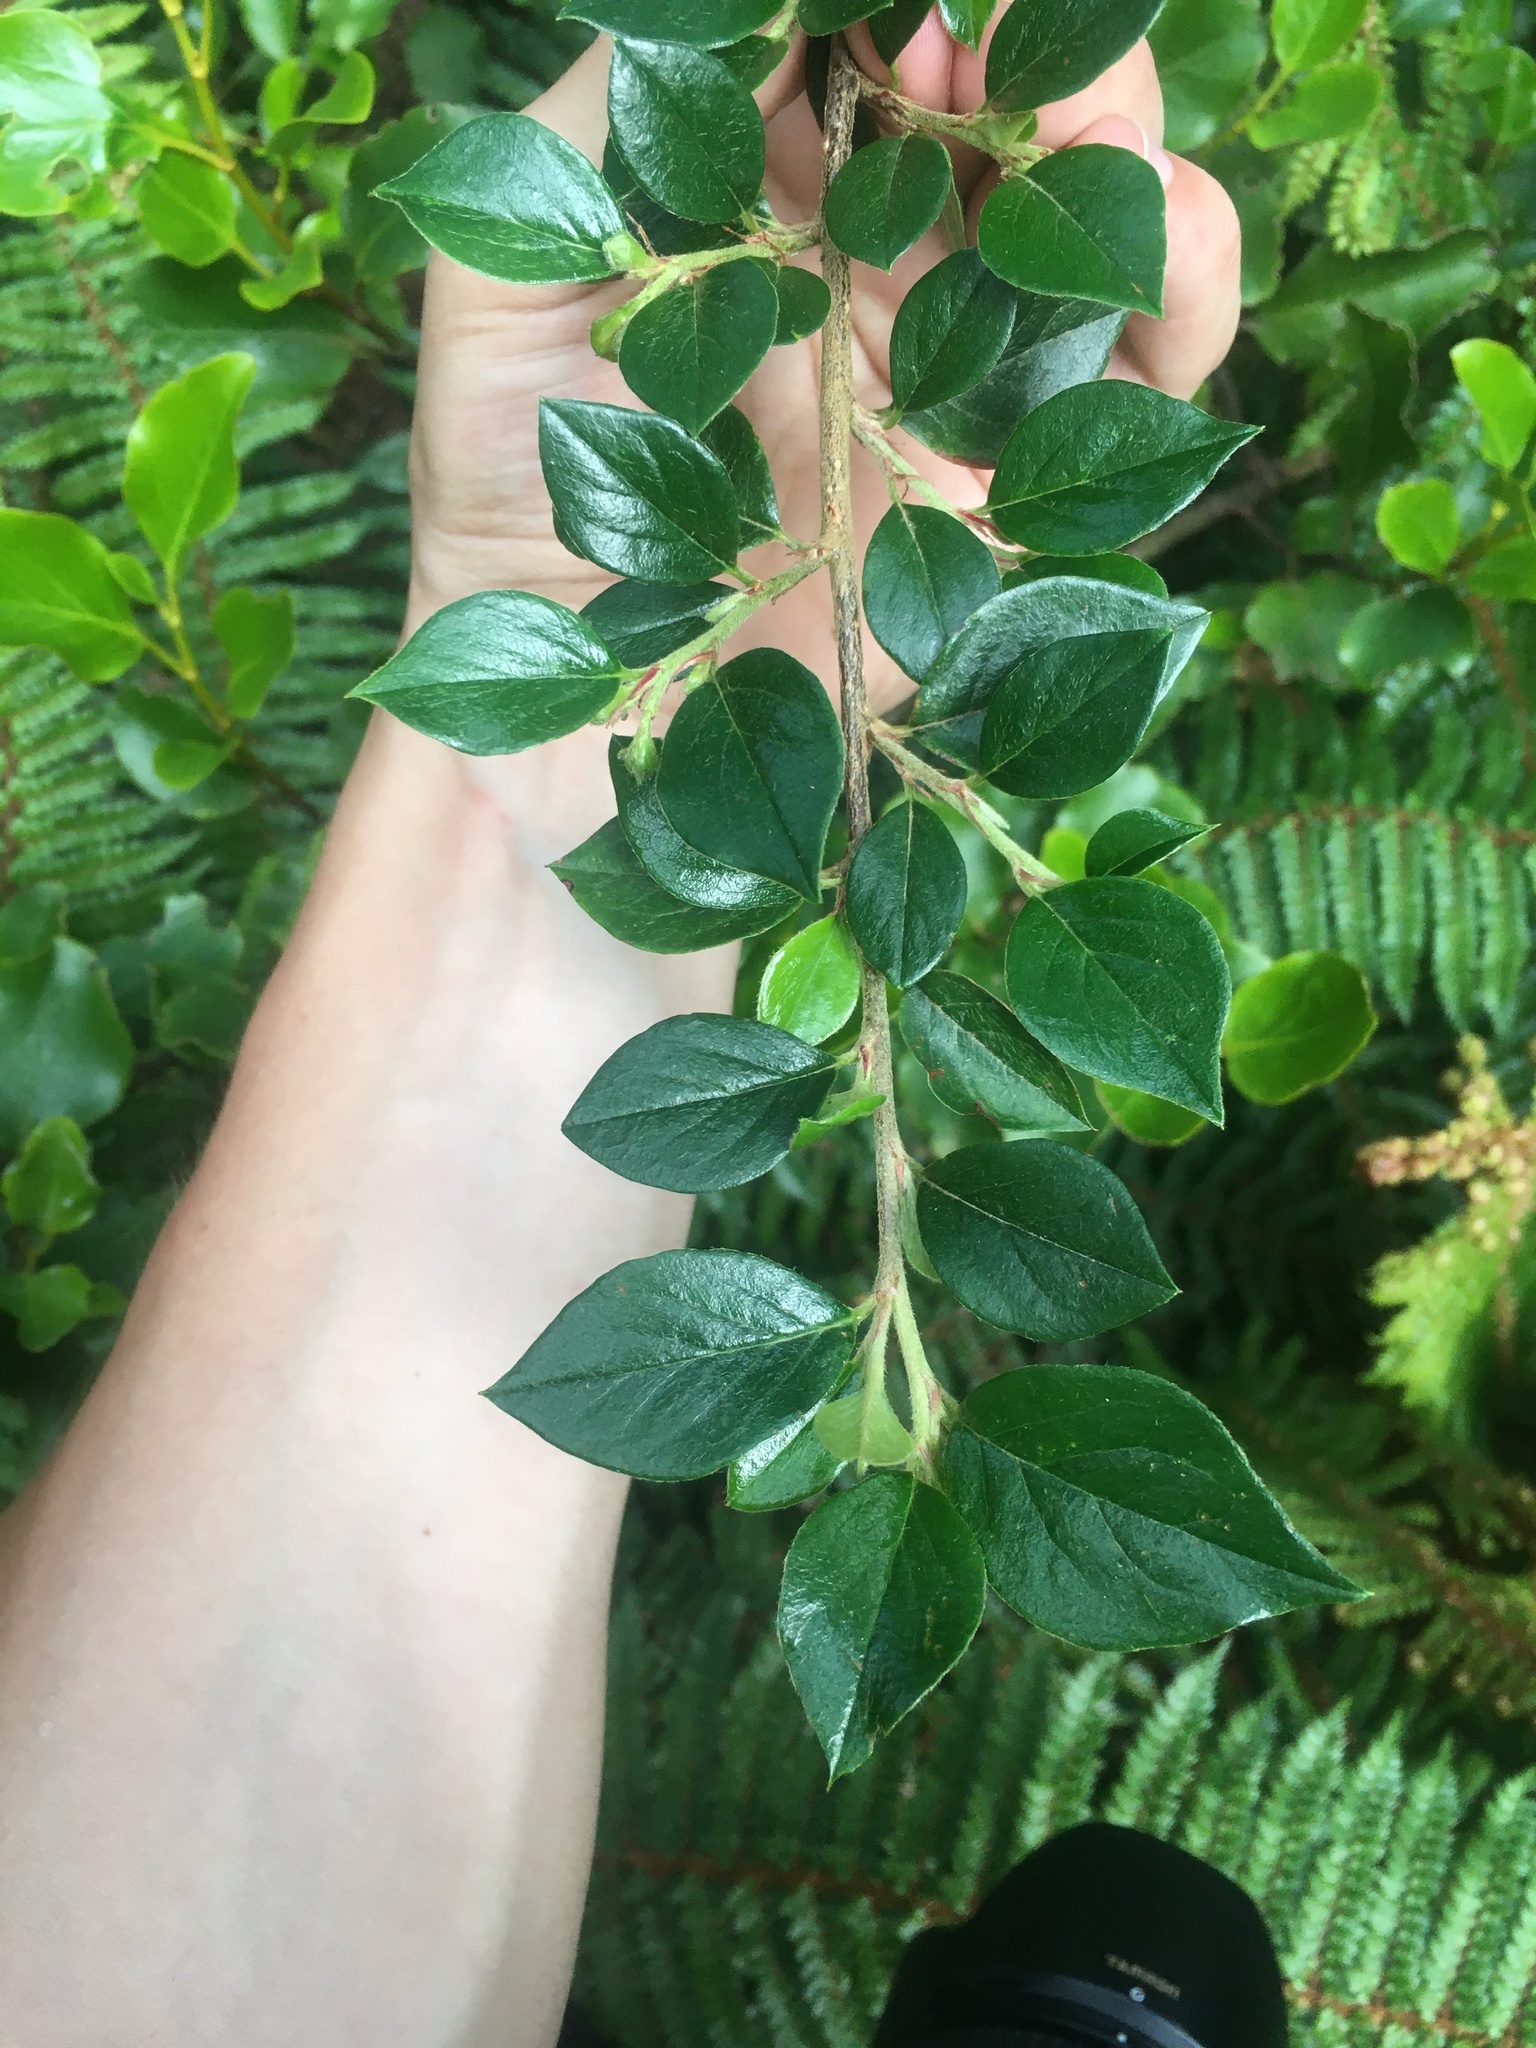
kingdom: Plantae
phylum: Tracheophyta
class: Magnoliopsida
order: Rosales
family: Rosaceae
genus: Cotoneaster
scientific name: Cotoneaster simonsii
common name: Himalayan cotoneaster
